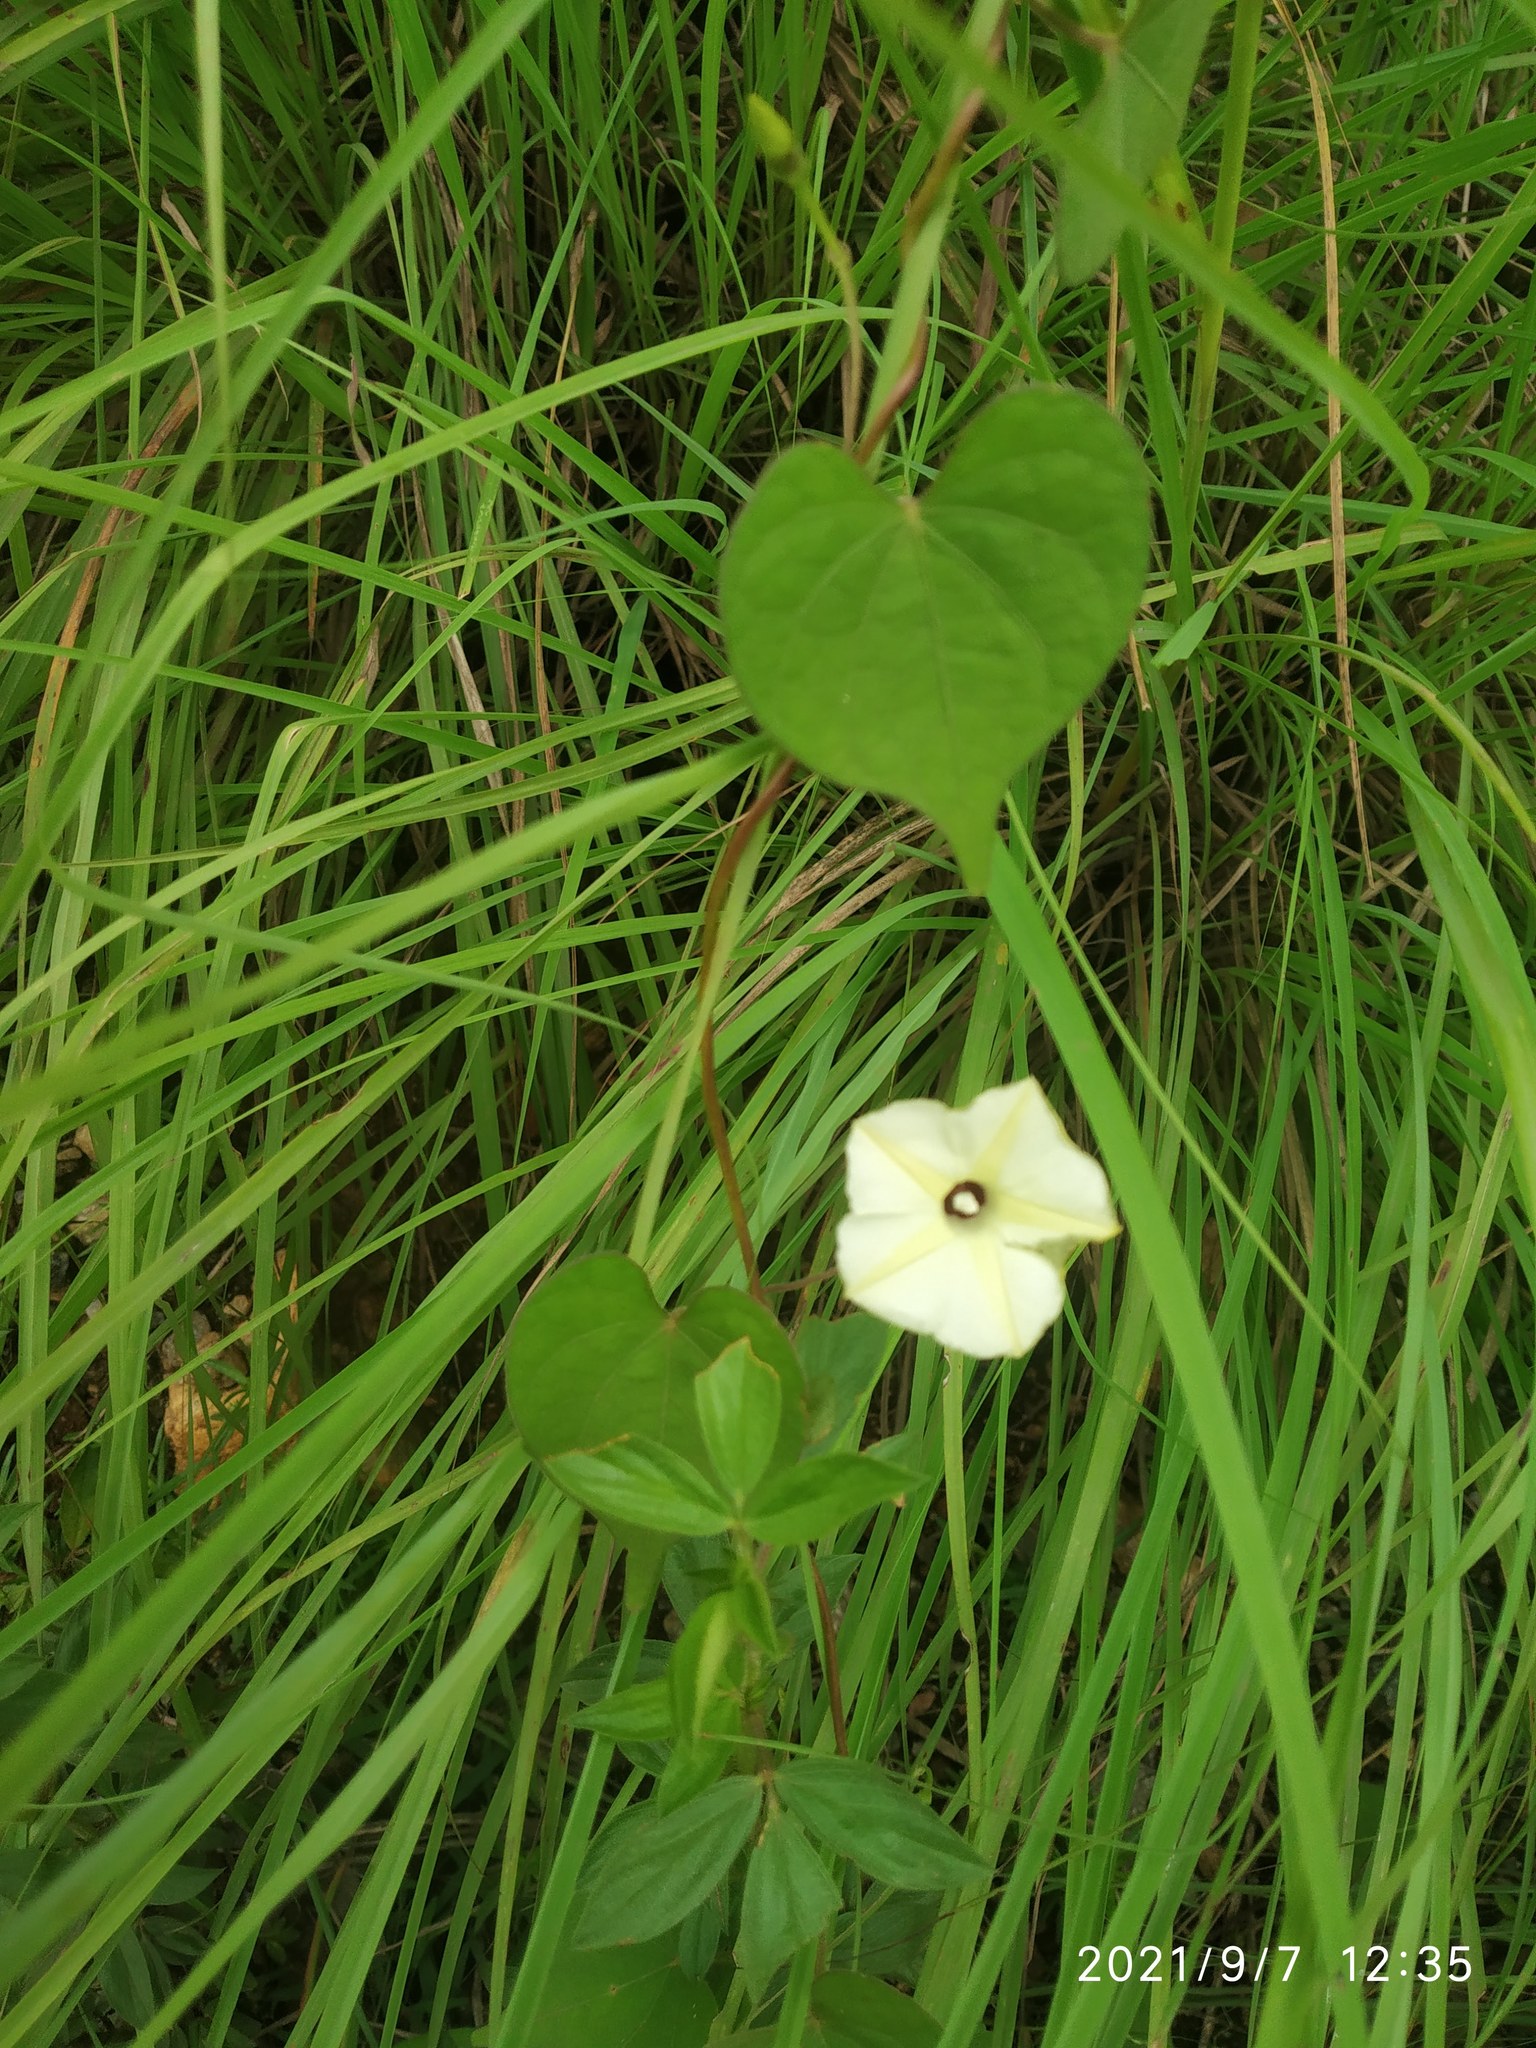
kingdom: Plantae
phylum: Tracheophyta
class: Magnoliopsida
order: Solanales
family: Convolvulaceae
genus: Ipomoea
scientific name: Ipomoea obscura
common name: Obscure morning-glory
